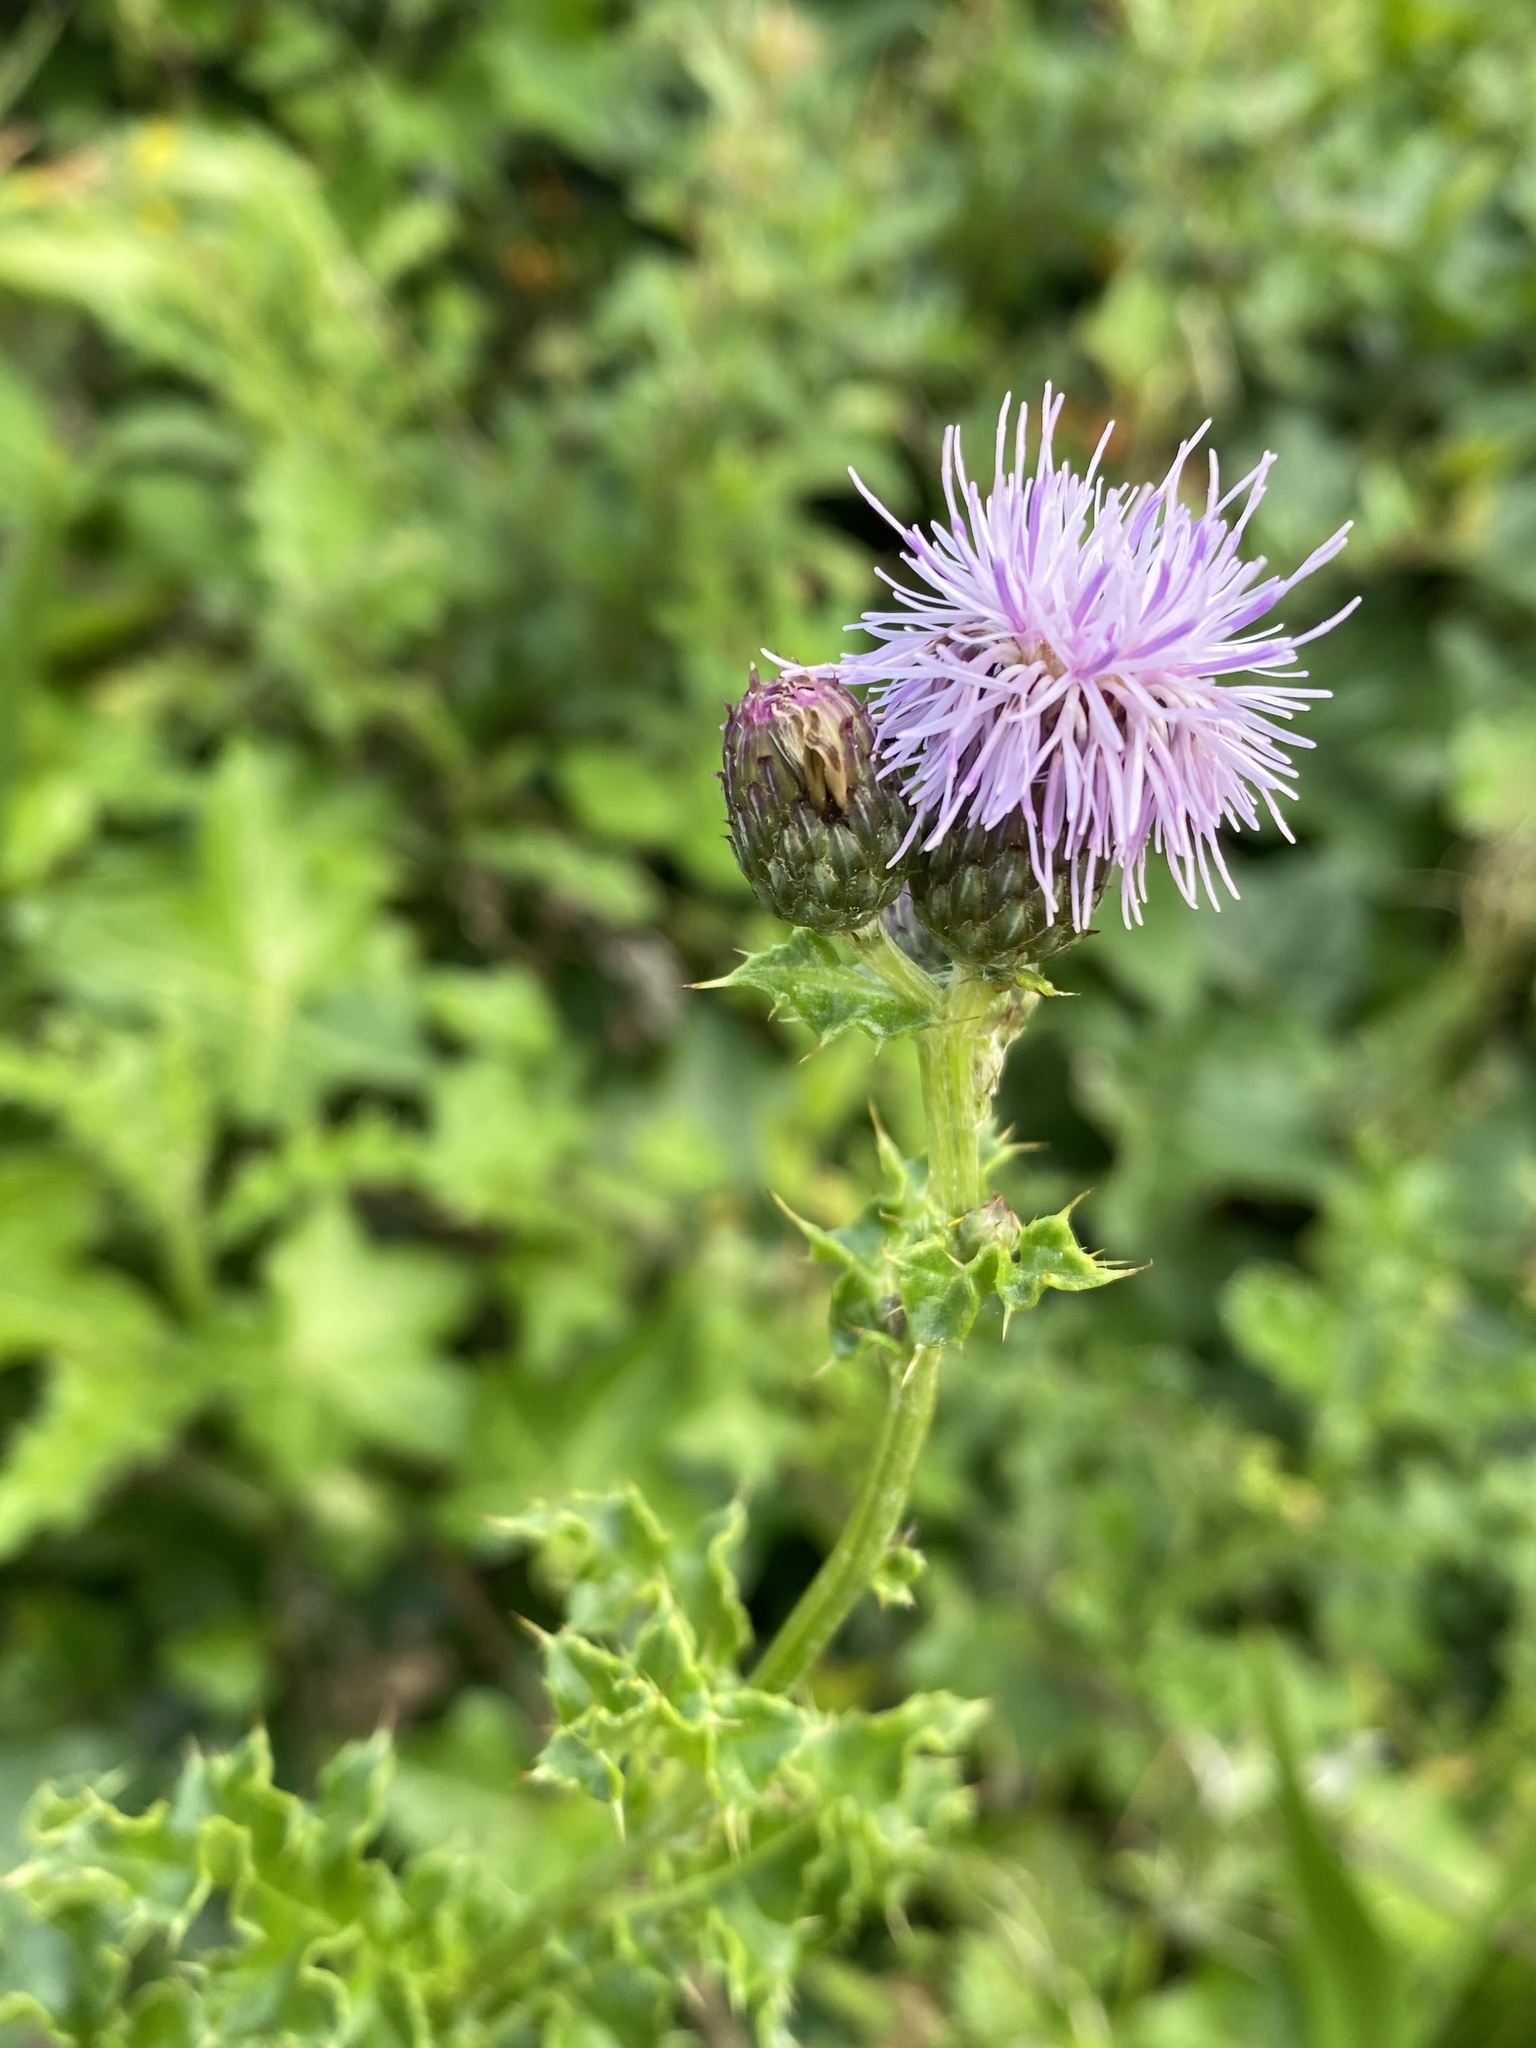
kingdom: Plantae
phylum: Tracheophyta
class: Magnoliopsida
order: Asterales
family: Asteraceae
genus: Cirsium
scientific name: Cirsium arvense
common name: Creeping thistle
